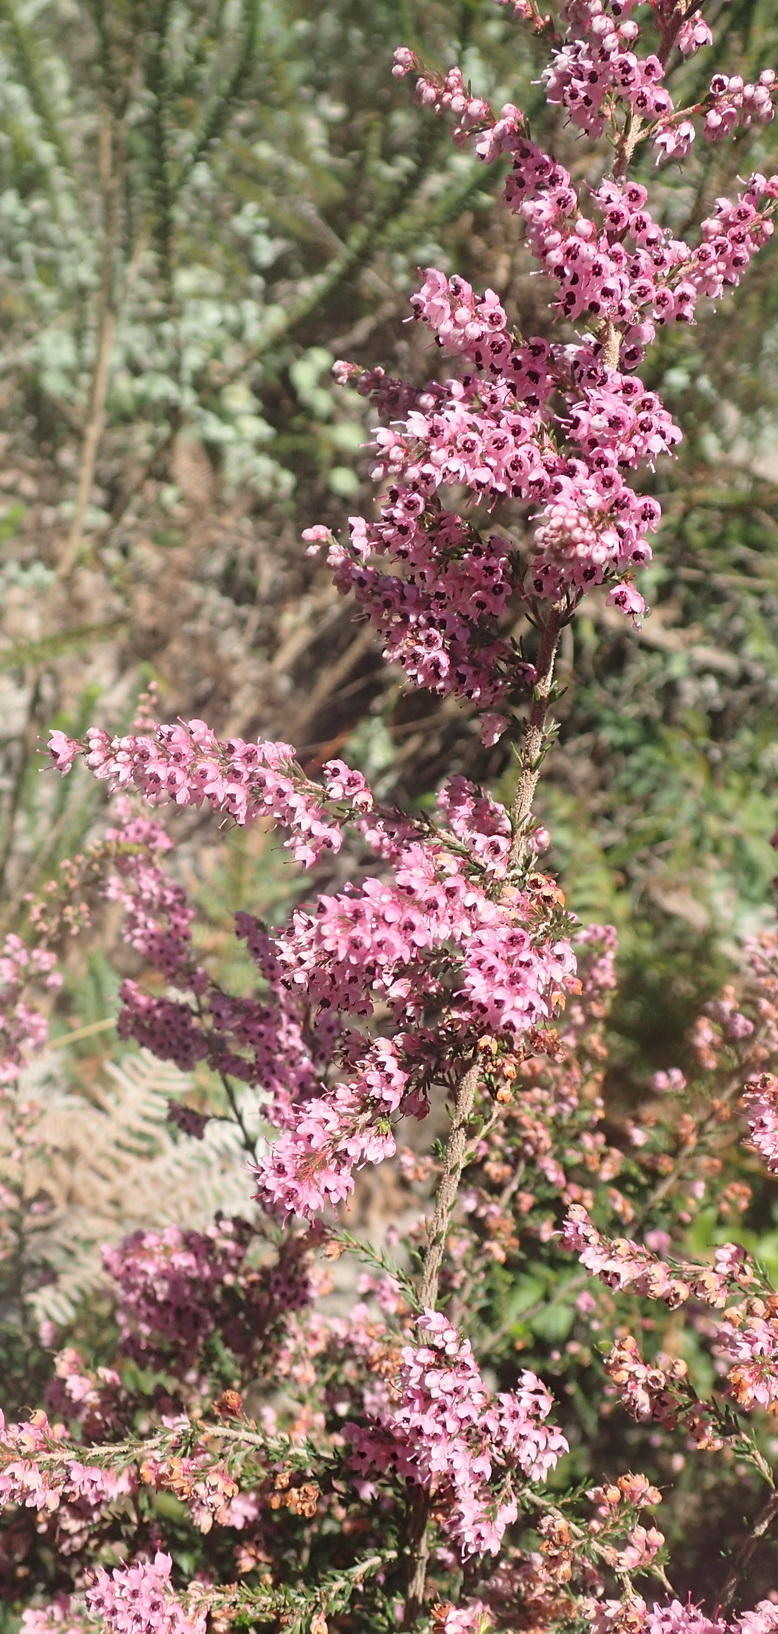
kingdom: Plantae
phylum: Tracheophyta
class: Magnoliopsida
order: Ericales
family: Ericaceae
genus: Erica
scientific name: Erica sparsa
